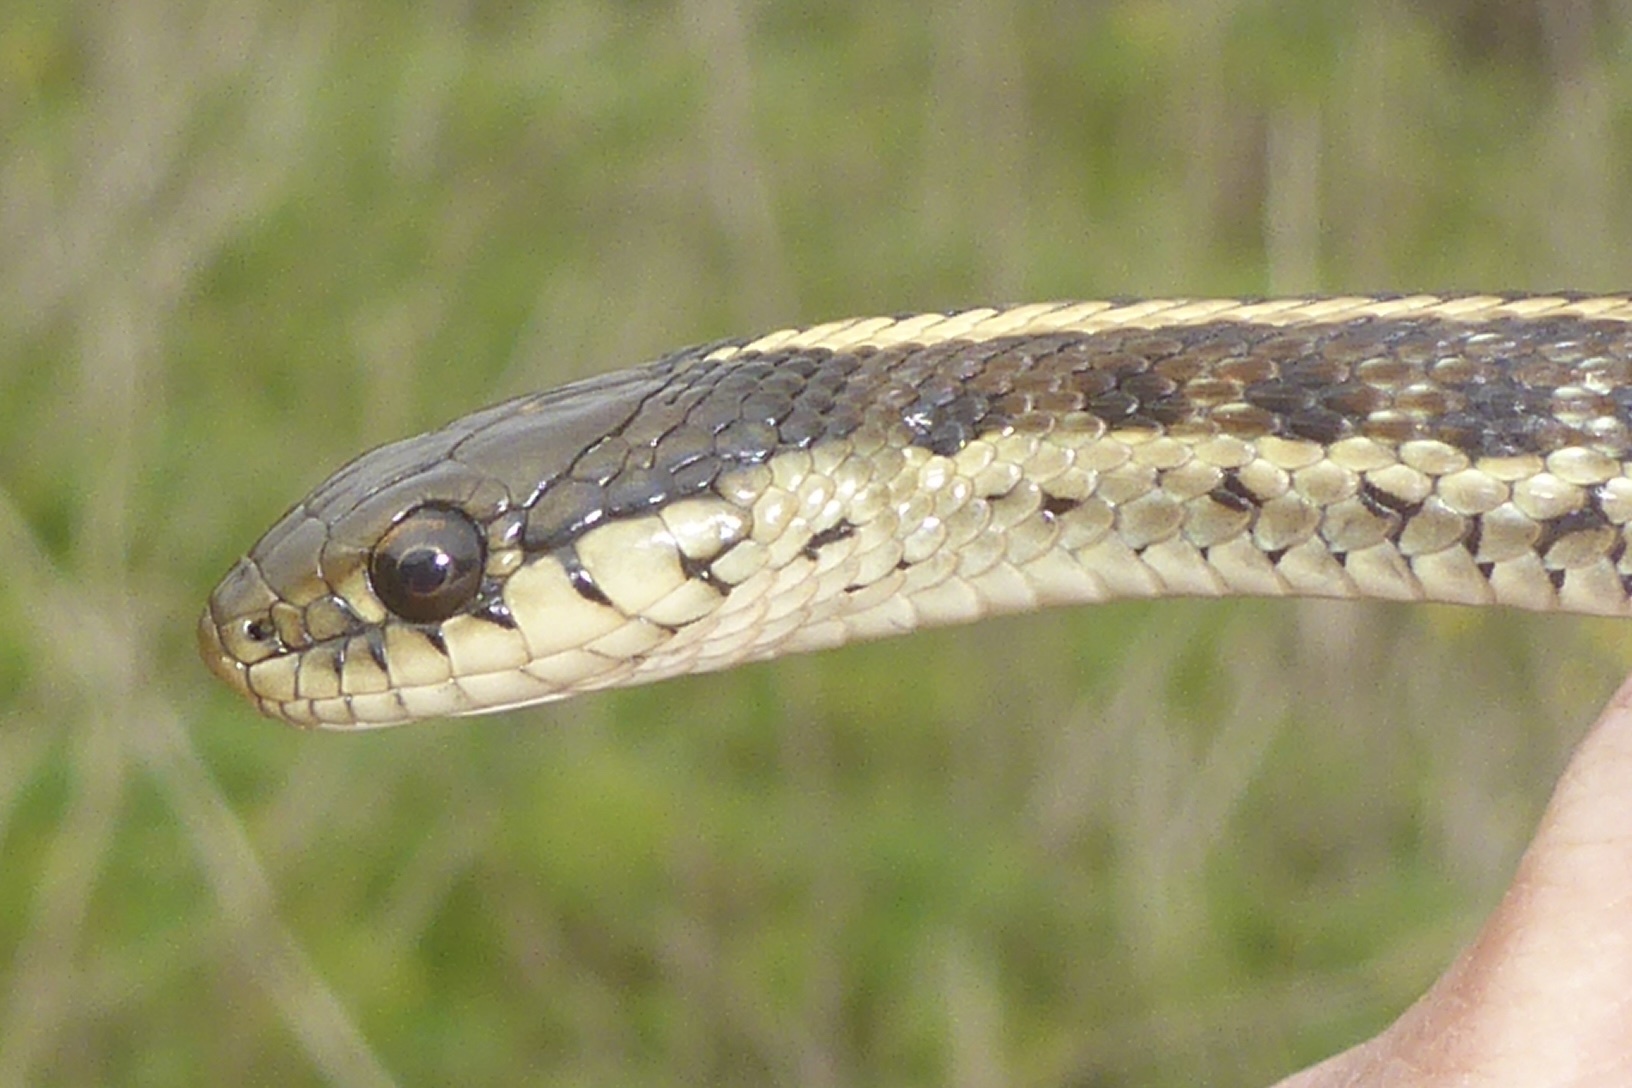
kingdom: Animalia
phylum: Chordata
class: Squamata
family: Colubridae
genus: Thamnophis
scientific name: Thamnophis elegans
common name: Western terrestrial garter snake
